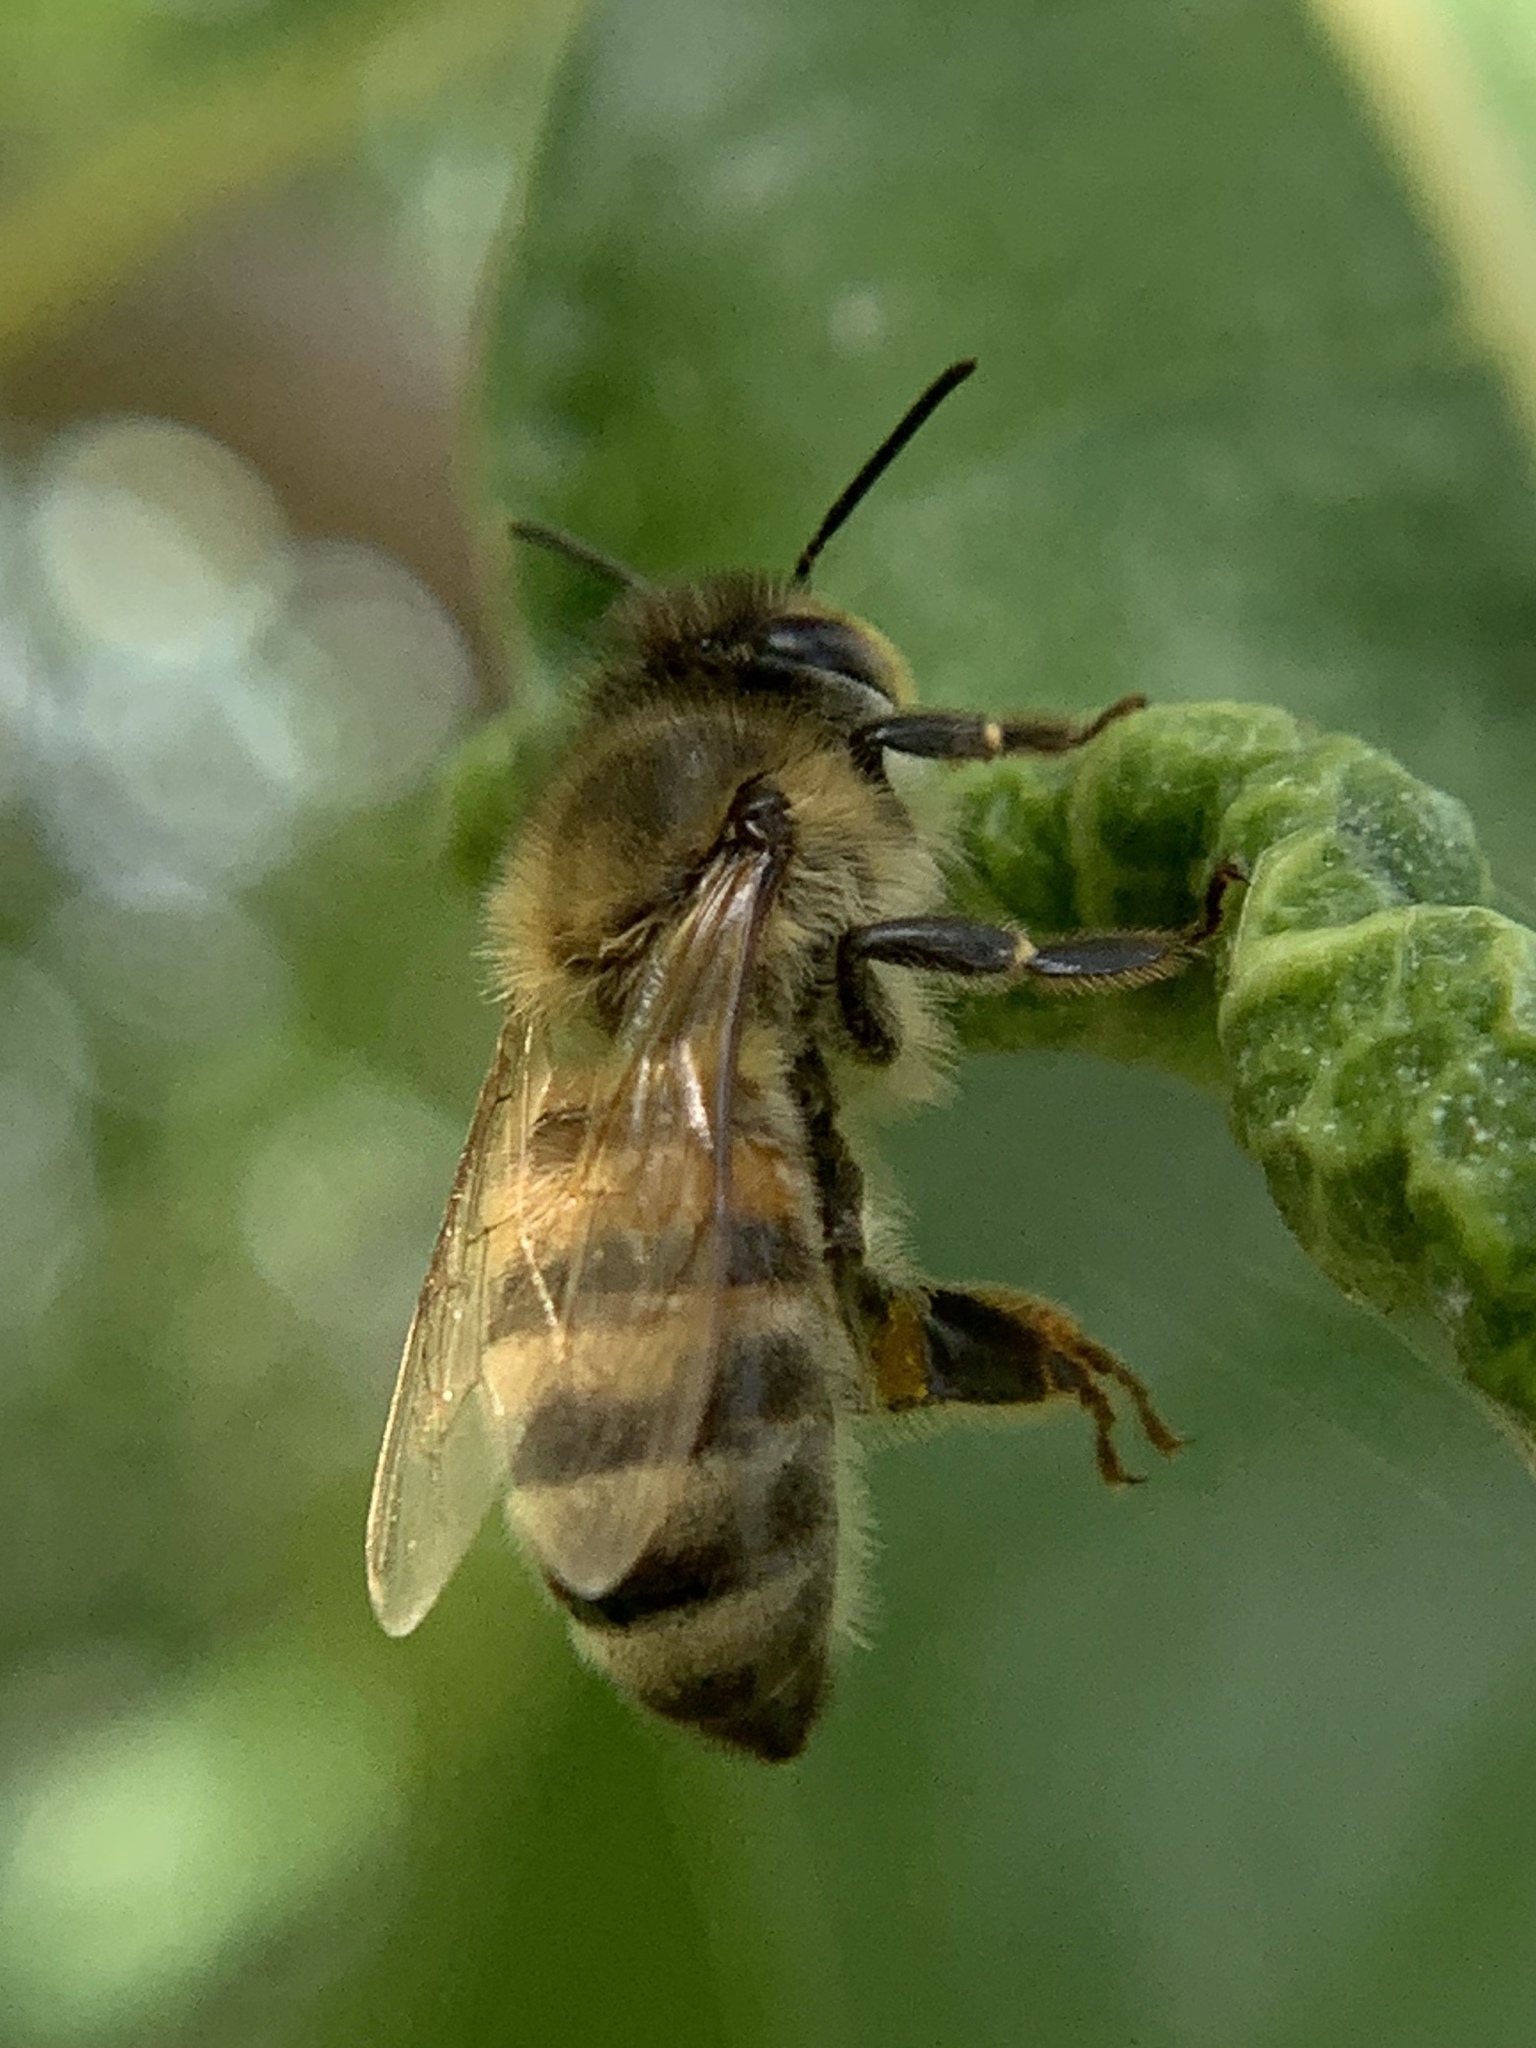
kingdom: Animalia
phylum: Arthropoda
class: Insecta
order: Hymenoptera
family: Apidae
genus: Apis
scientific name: Apis mellifera
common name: Honey bee
